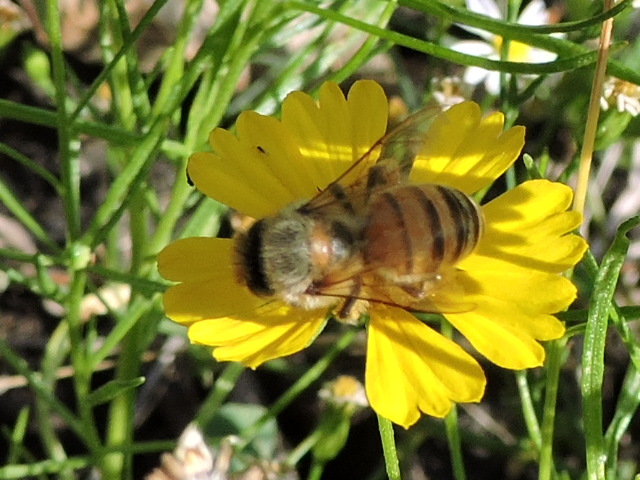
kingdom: Animalia
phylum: Arthropoda
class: Insecta
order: Hymenoptera
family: Apidae
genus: Apis
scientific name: Apis mellifera
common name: Honey bee
